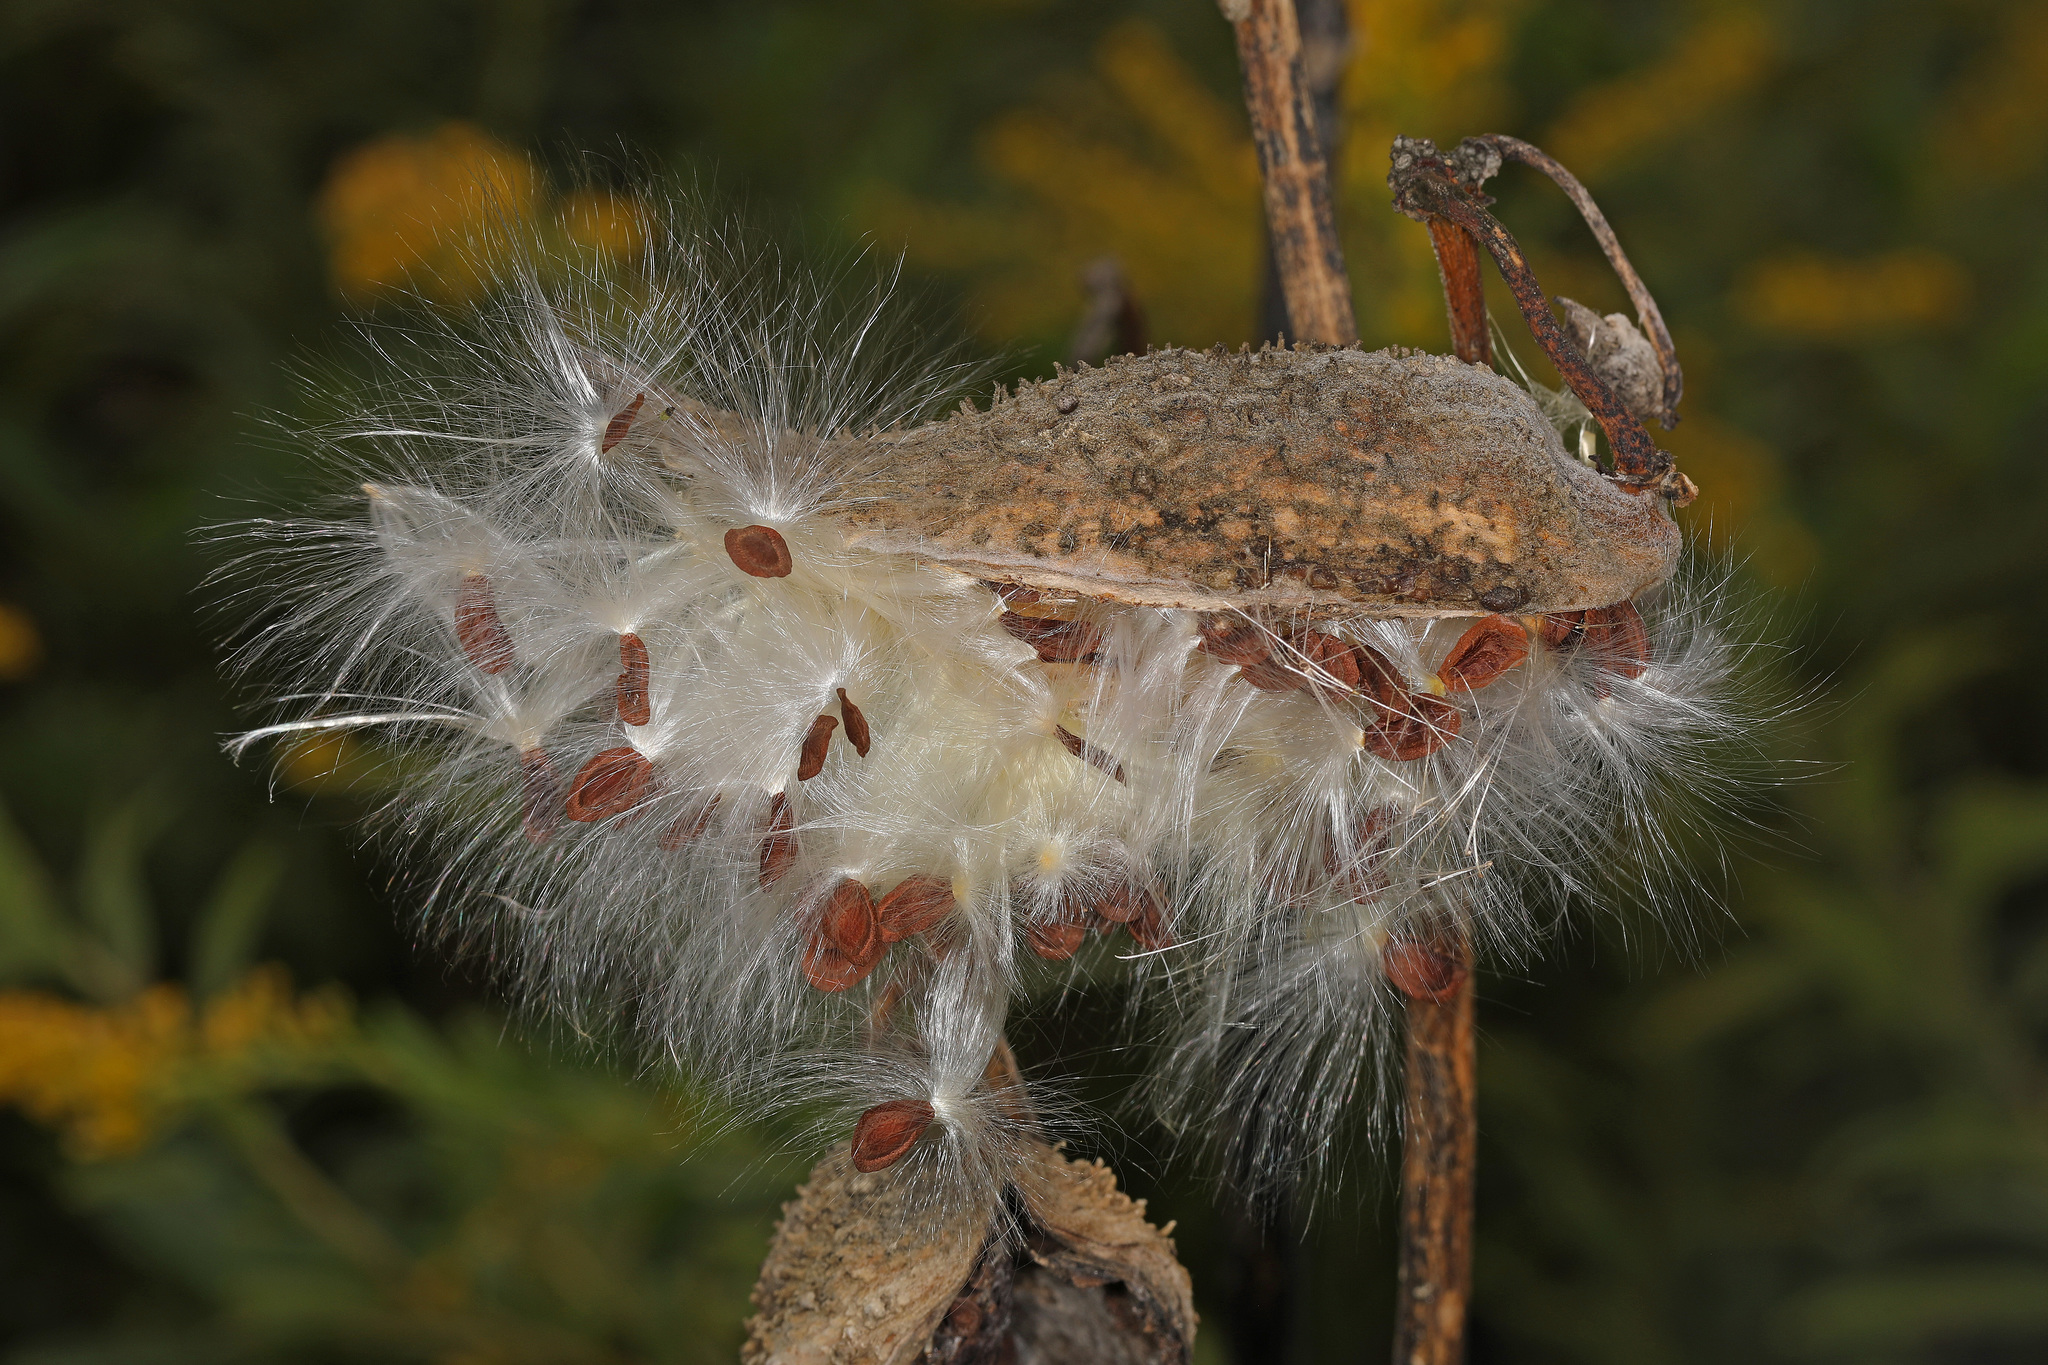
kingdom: Plantae
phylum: Tracheophyta
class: Magnoliopsida
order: Gentianales
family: Apocynaceae
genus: Asclepias
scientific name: Asclepias syriaca
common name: Common milkweed
